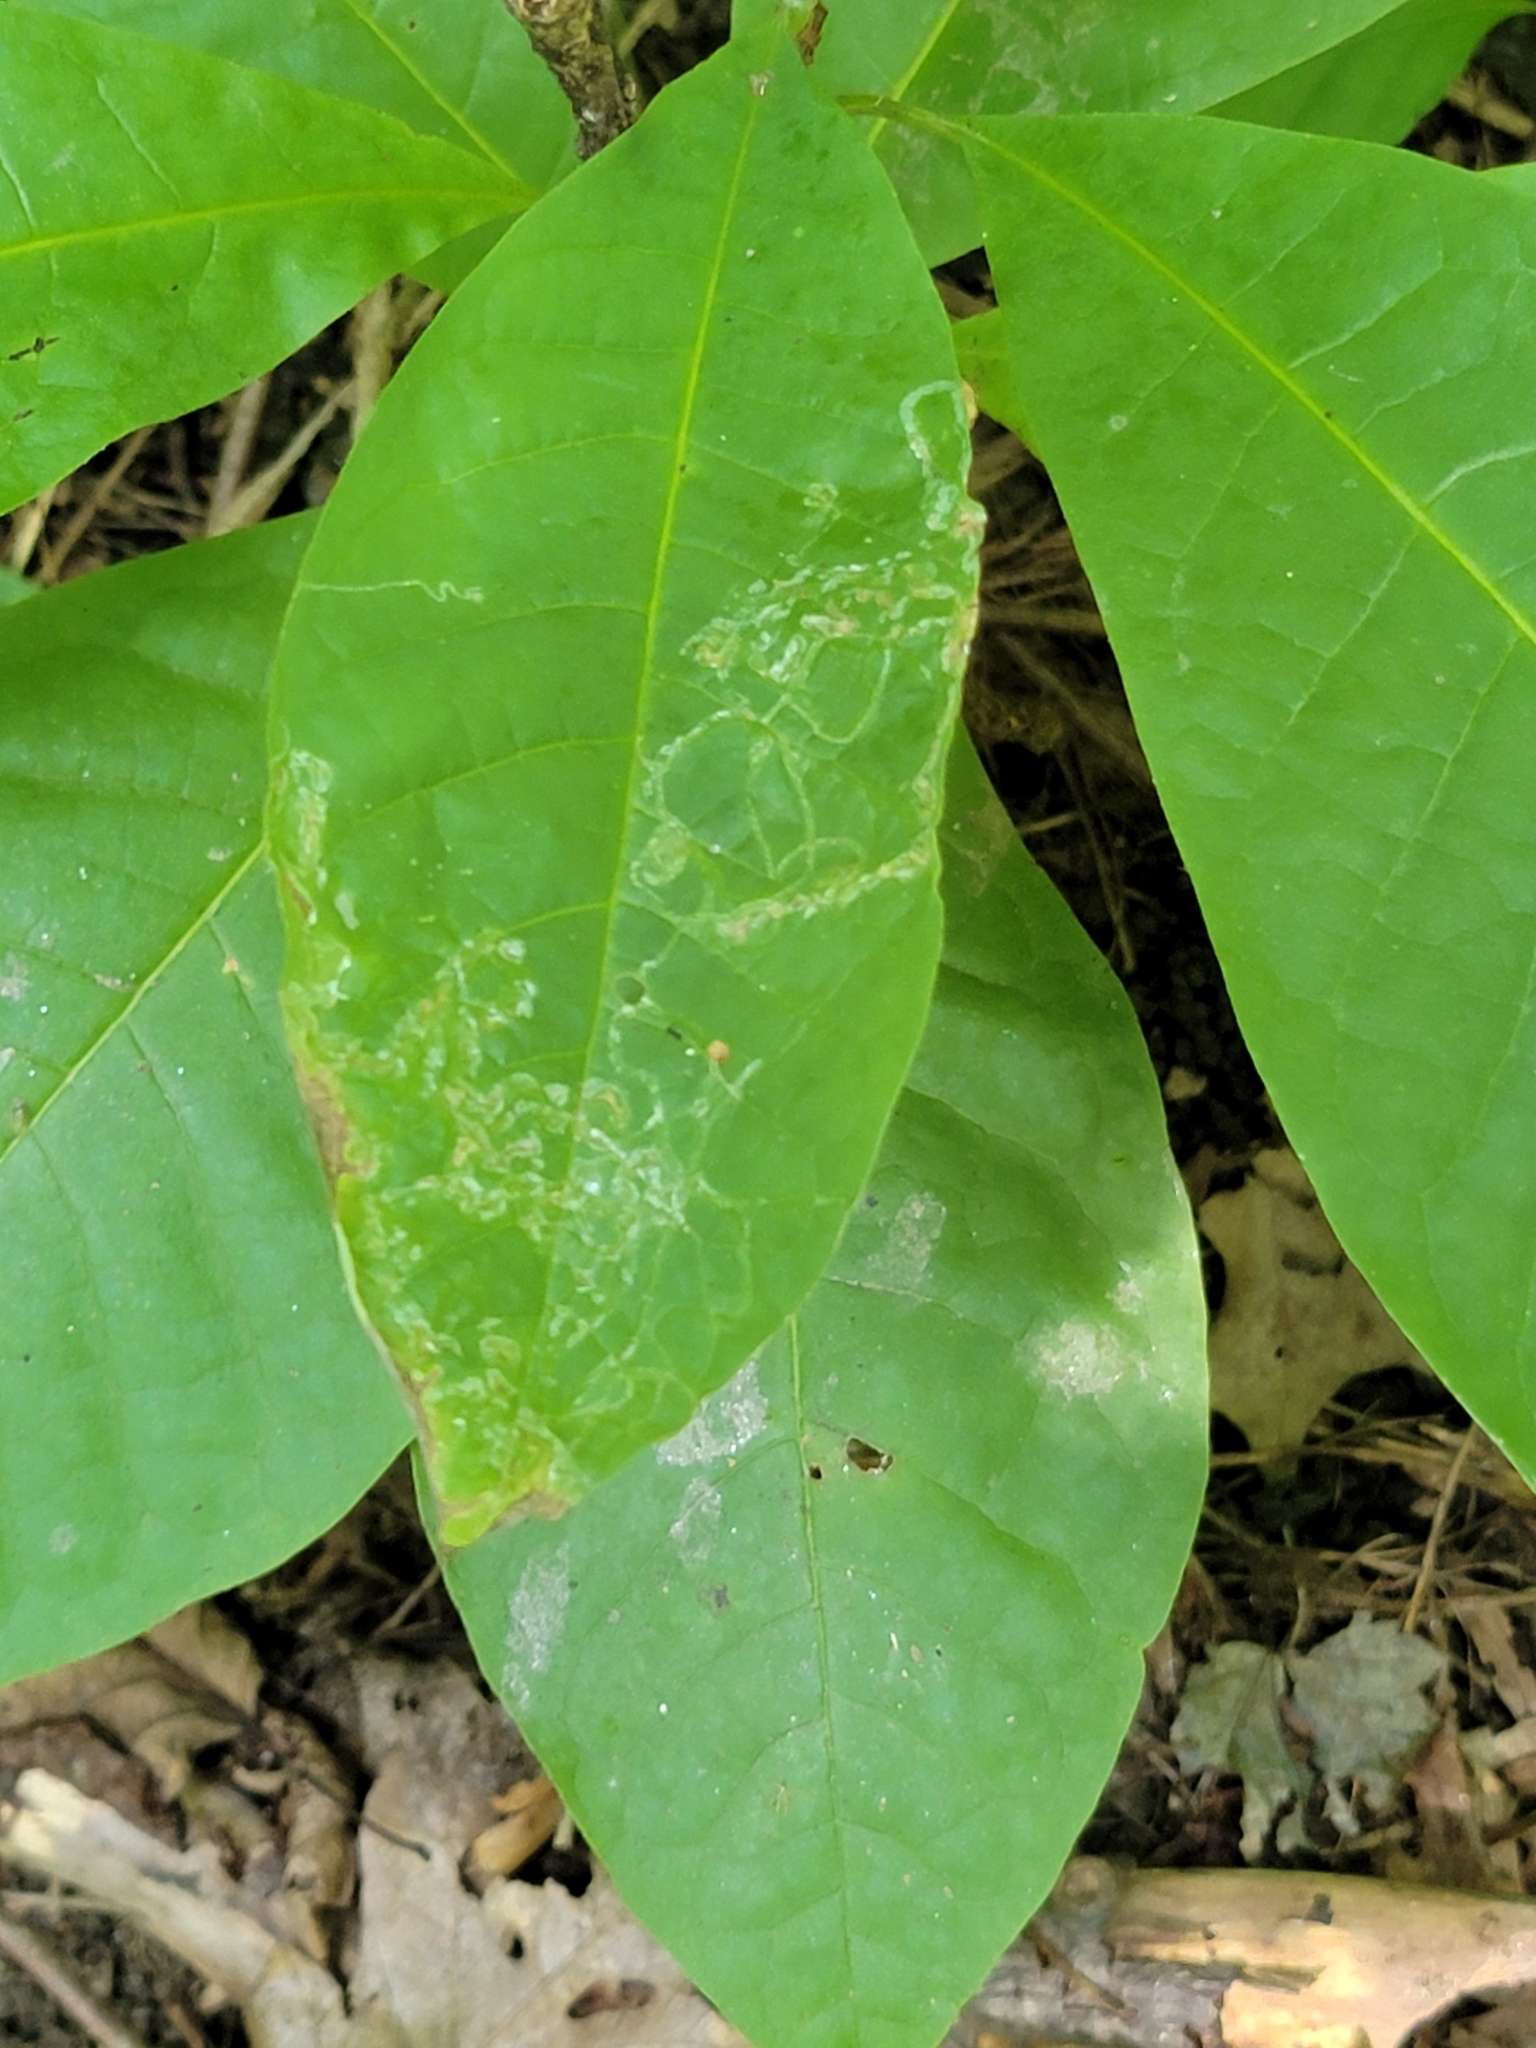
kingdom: Animalia
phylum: Arthropoda
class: Insecta
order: Lepidoptera
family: Gracillariidae
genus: Phyllocnistis
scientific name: Phyllocnistis liriodendronella
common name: Tulip tree leaf miner
